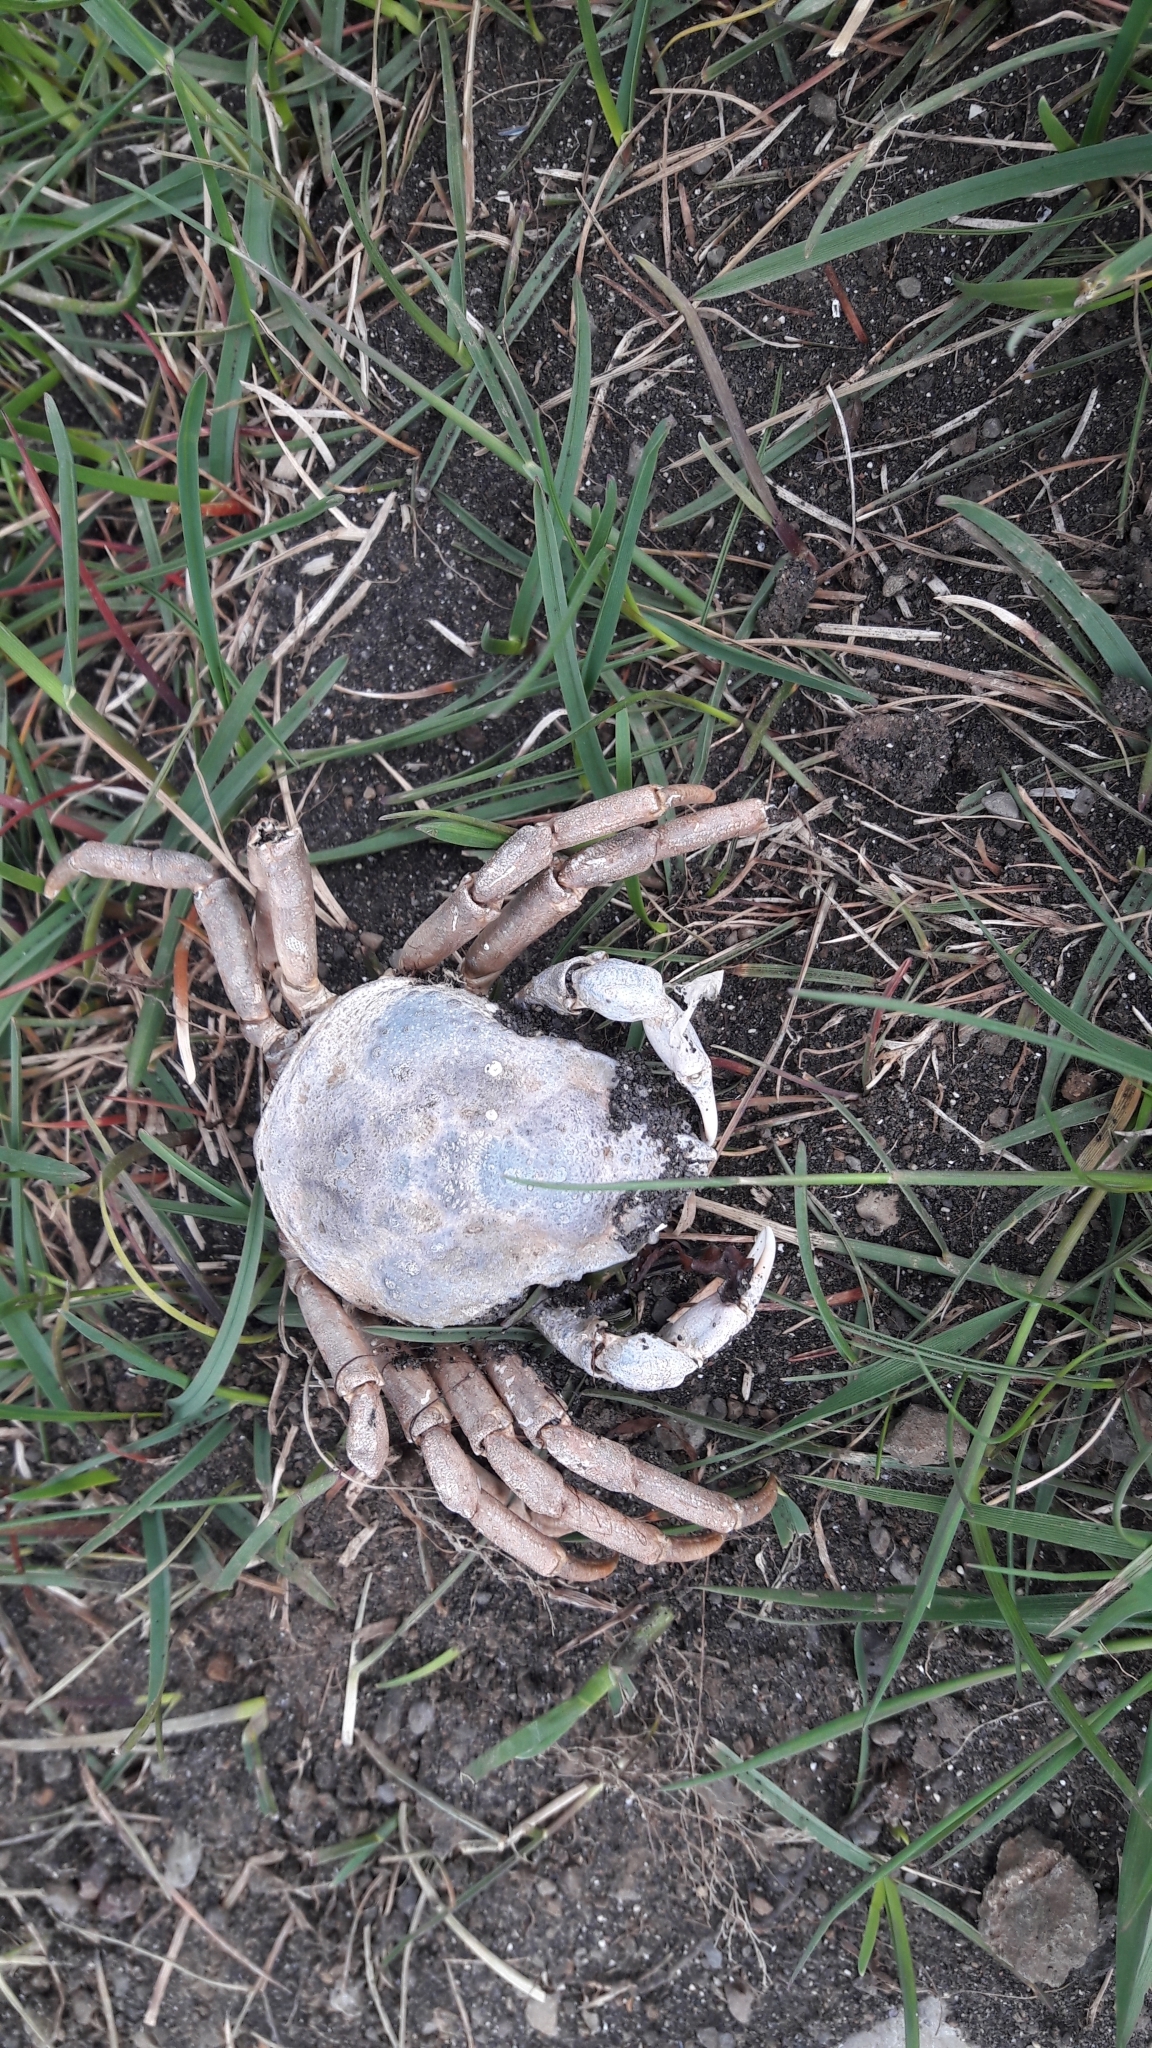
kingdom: Animalia
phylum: Arthropoda
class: Malacostraca
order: Decapoda
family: Oregoniidae
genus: Hyas
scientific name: Hyas araneus
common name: Great spider crab
